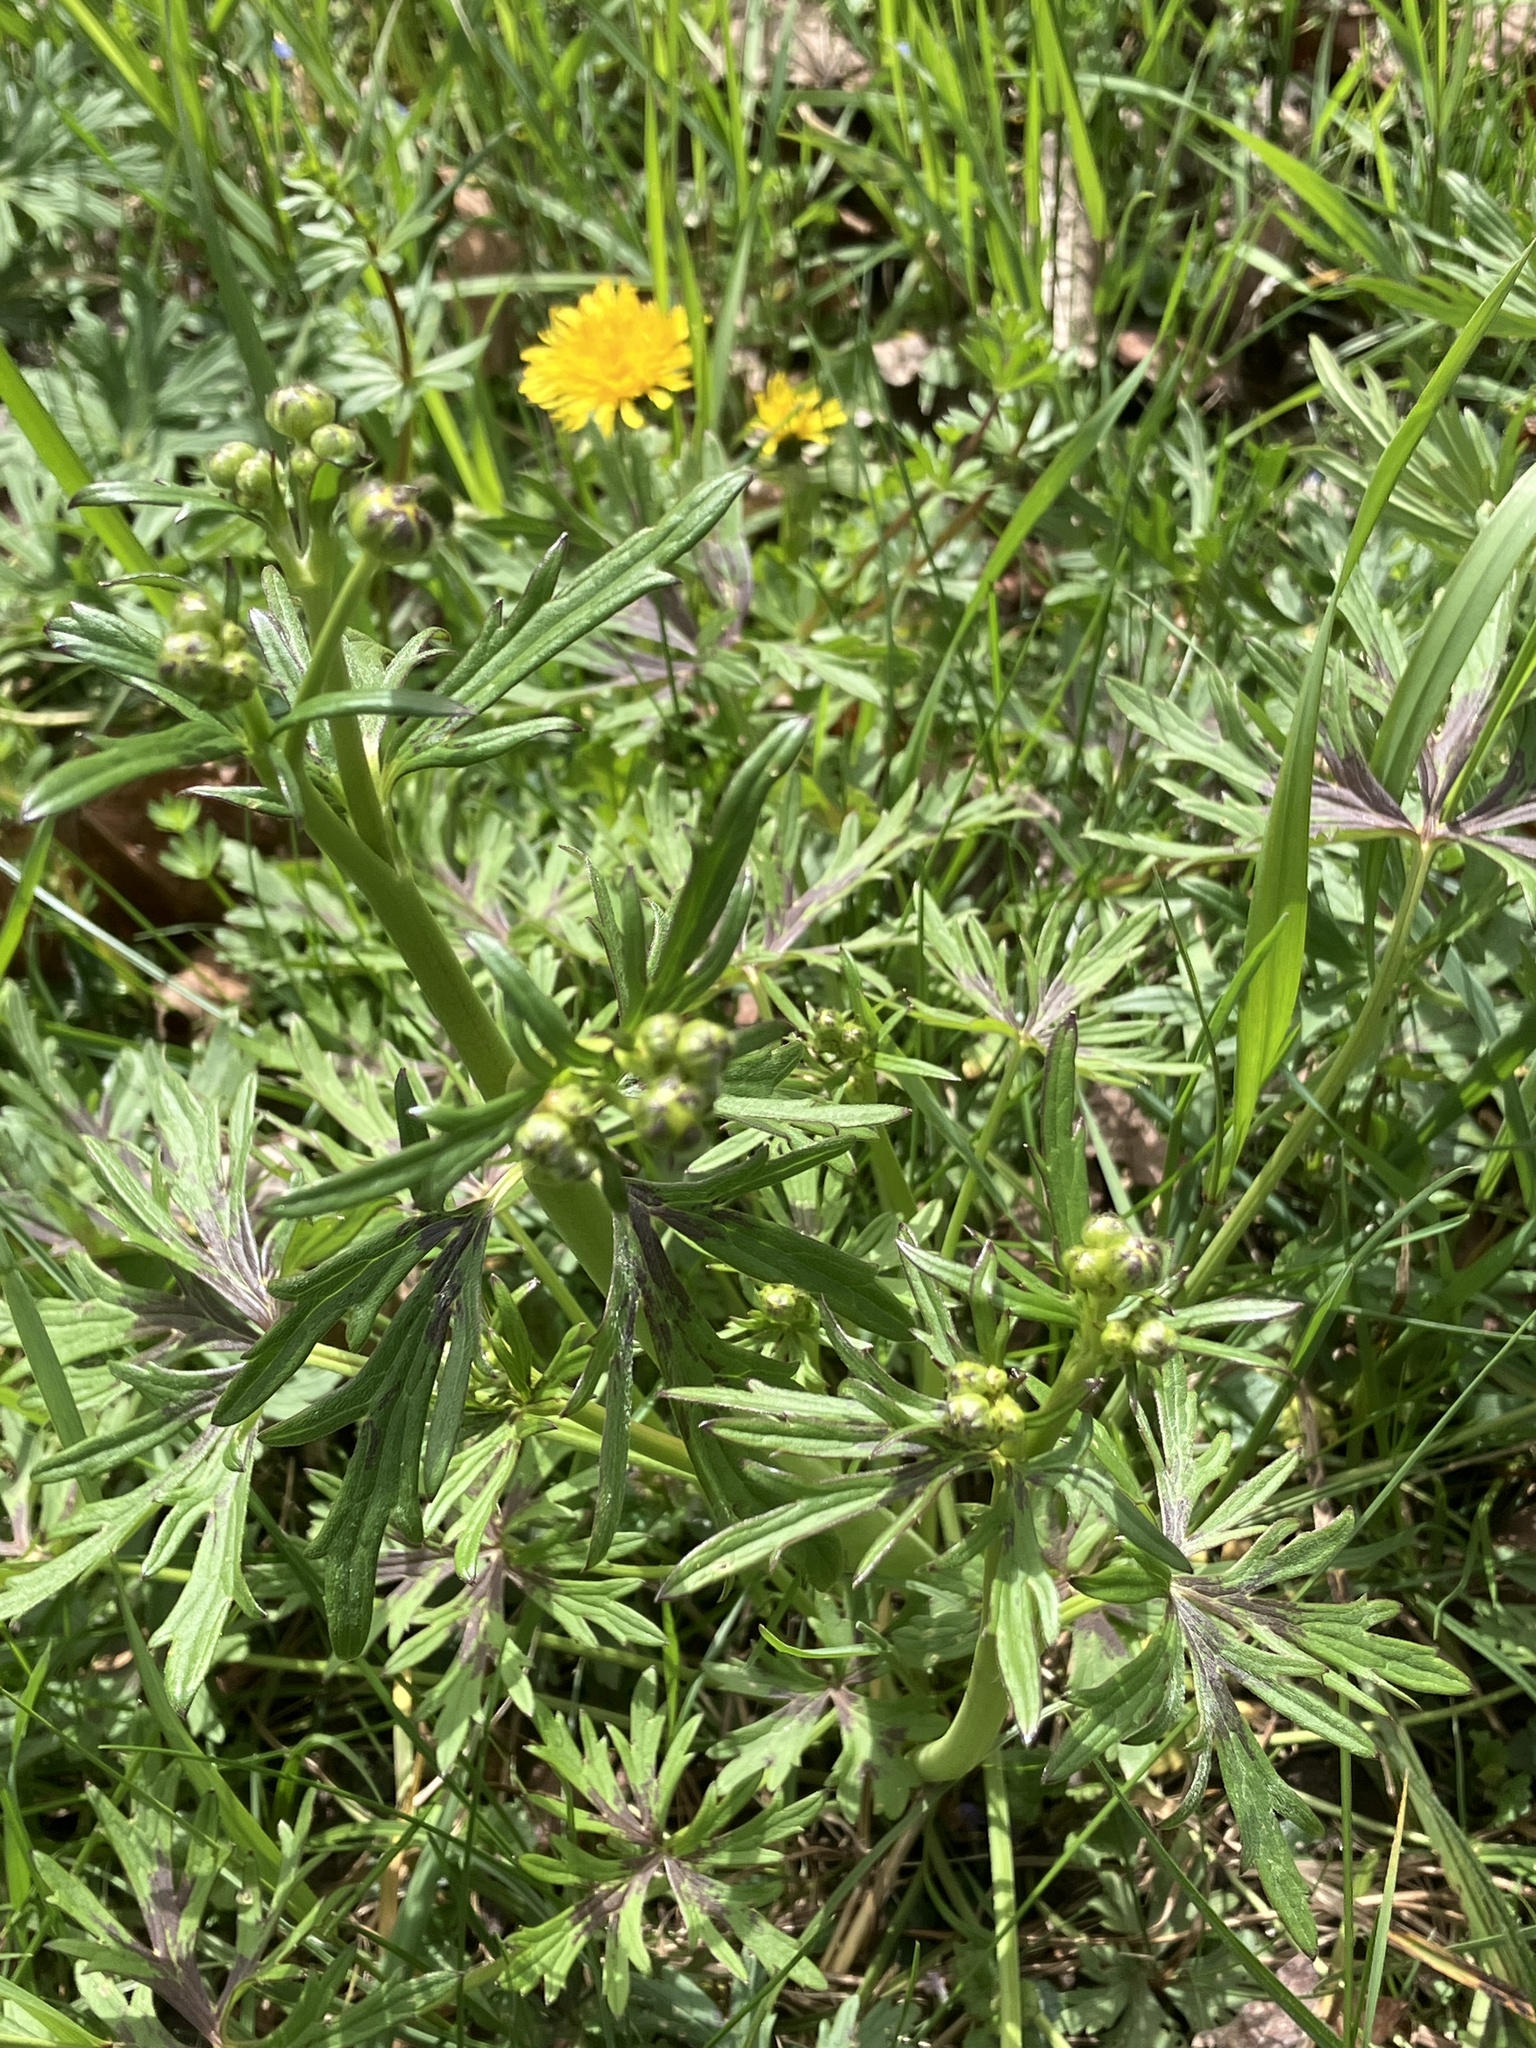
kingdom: Plantae
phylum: Tracheophyta
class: Magnoliopsida
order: Ranunculales
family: Ranunculaceae
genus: Ranunculus
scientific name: Ranunculus acris
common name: Meadow buttercup
